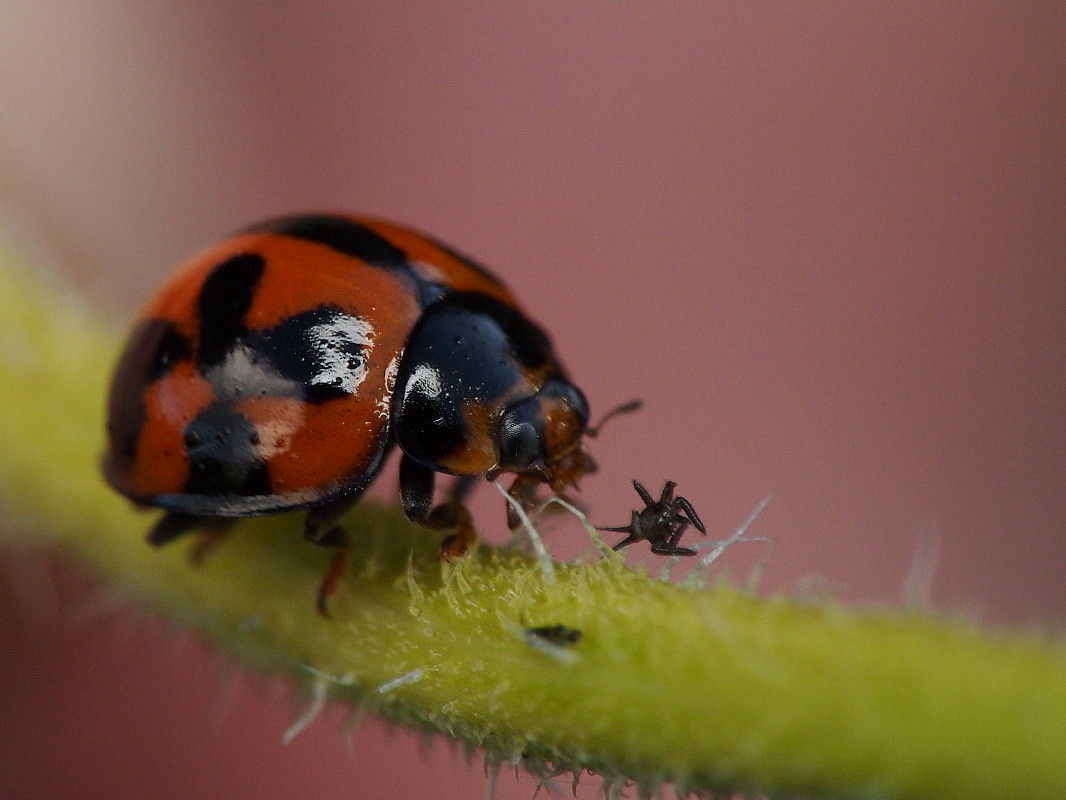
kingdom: Animalia
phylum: Arthropoda
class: Insecta
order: Coleoptera
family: Coccinellidae
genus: Coelophora
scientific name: Coelophora inaequalis
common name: Common australian lady beetle
